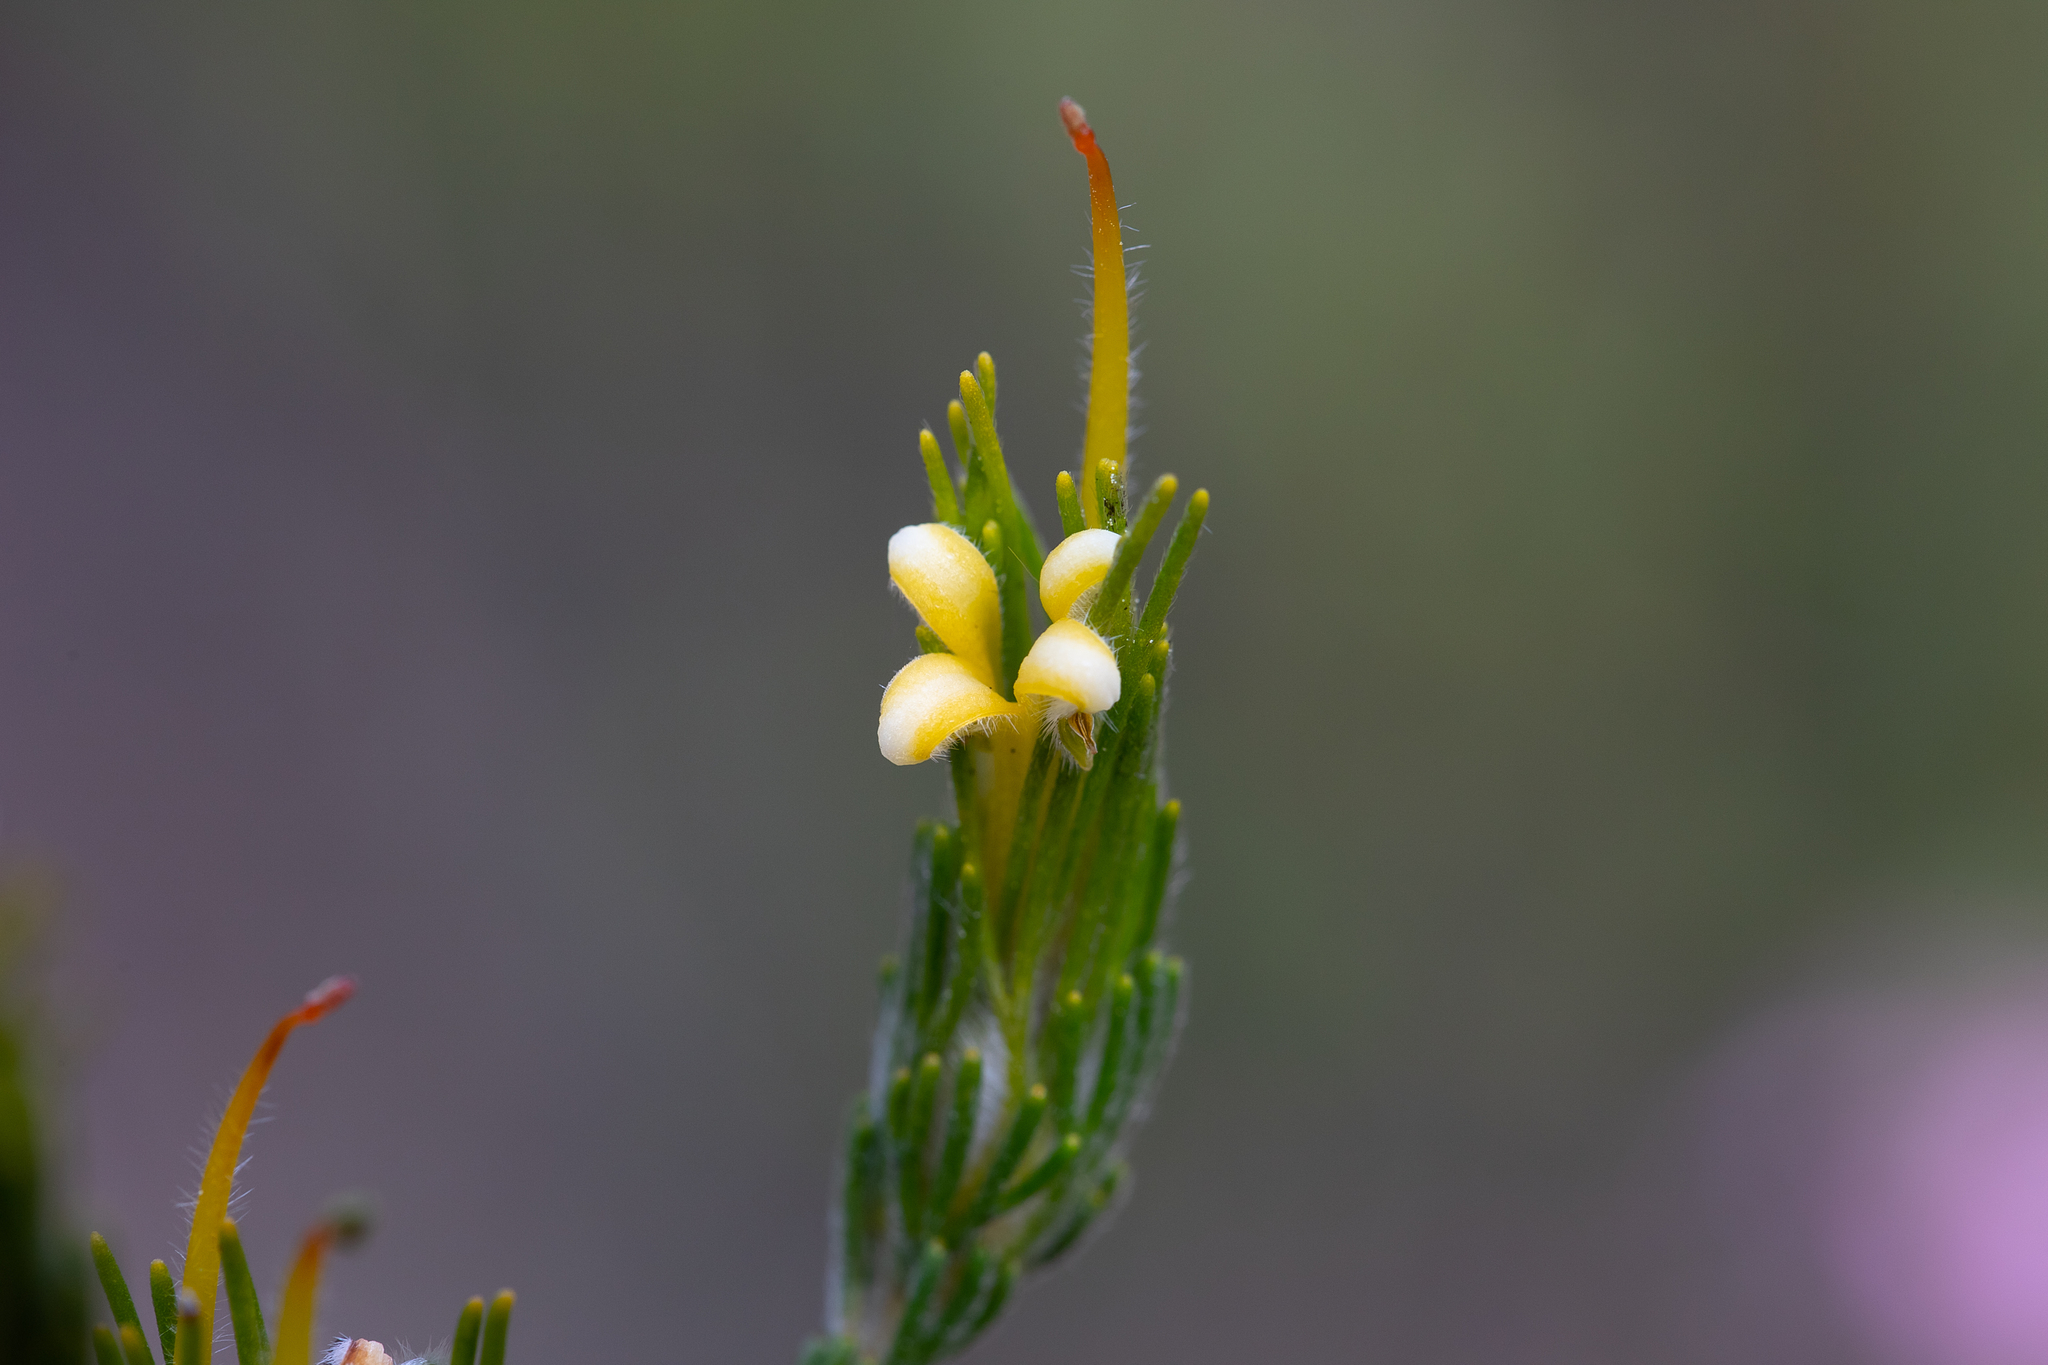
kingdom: Plantae
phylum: Tracheophyta
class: Magnoliopsida
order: Proteales
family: Proteaceae
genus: Adenanthos
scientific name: Adenanthos terminalis
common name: Yellow gland-flower
